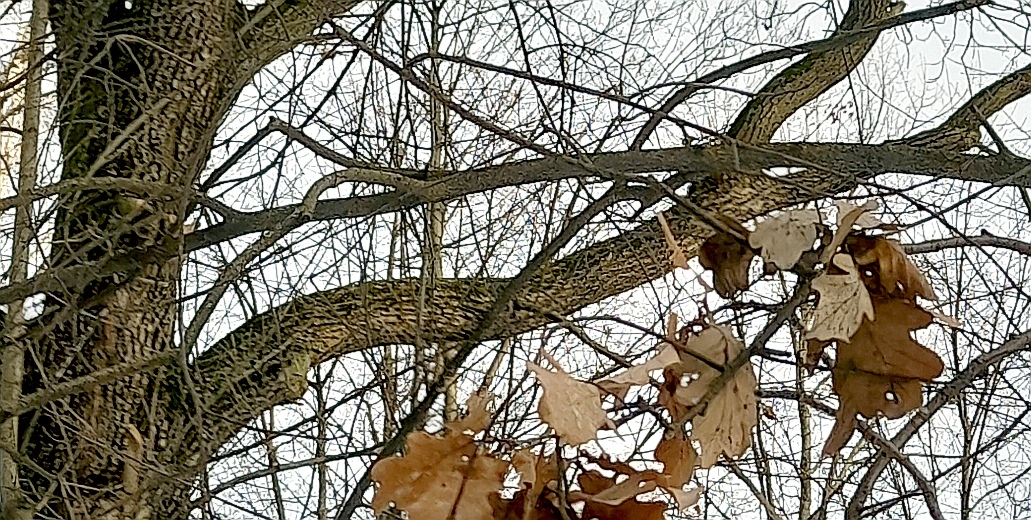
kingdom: Plantae
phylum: Tracheophyta
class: Magnoliopsida
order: Fagales
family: Fagaceae
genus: Quercus
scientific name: Quercus robur
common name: Pedunculate oak
